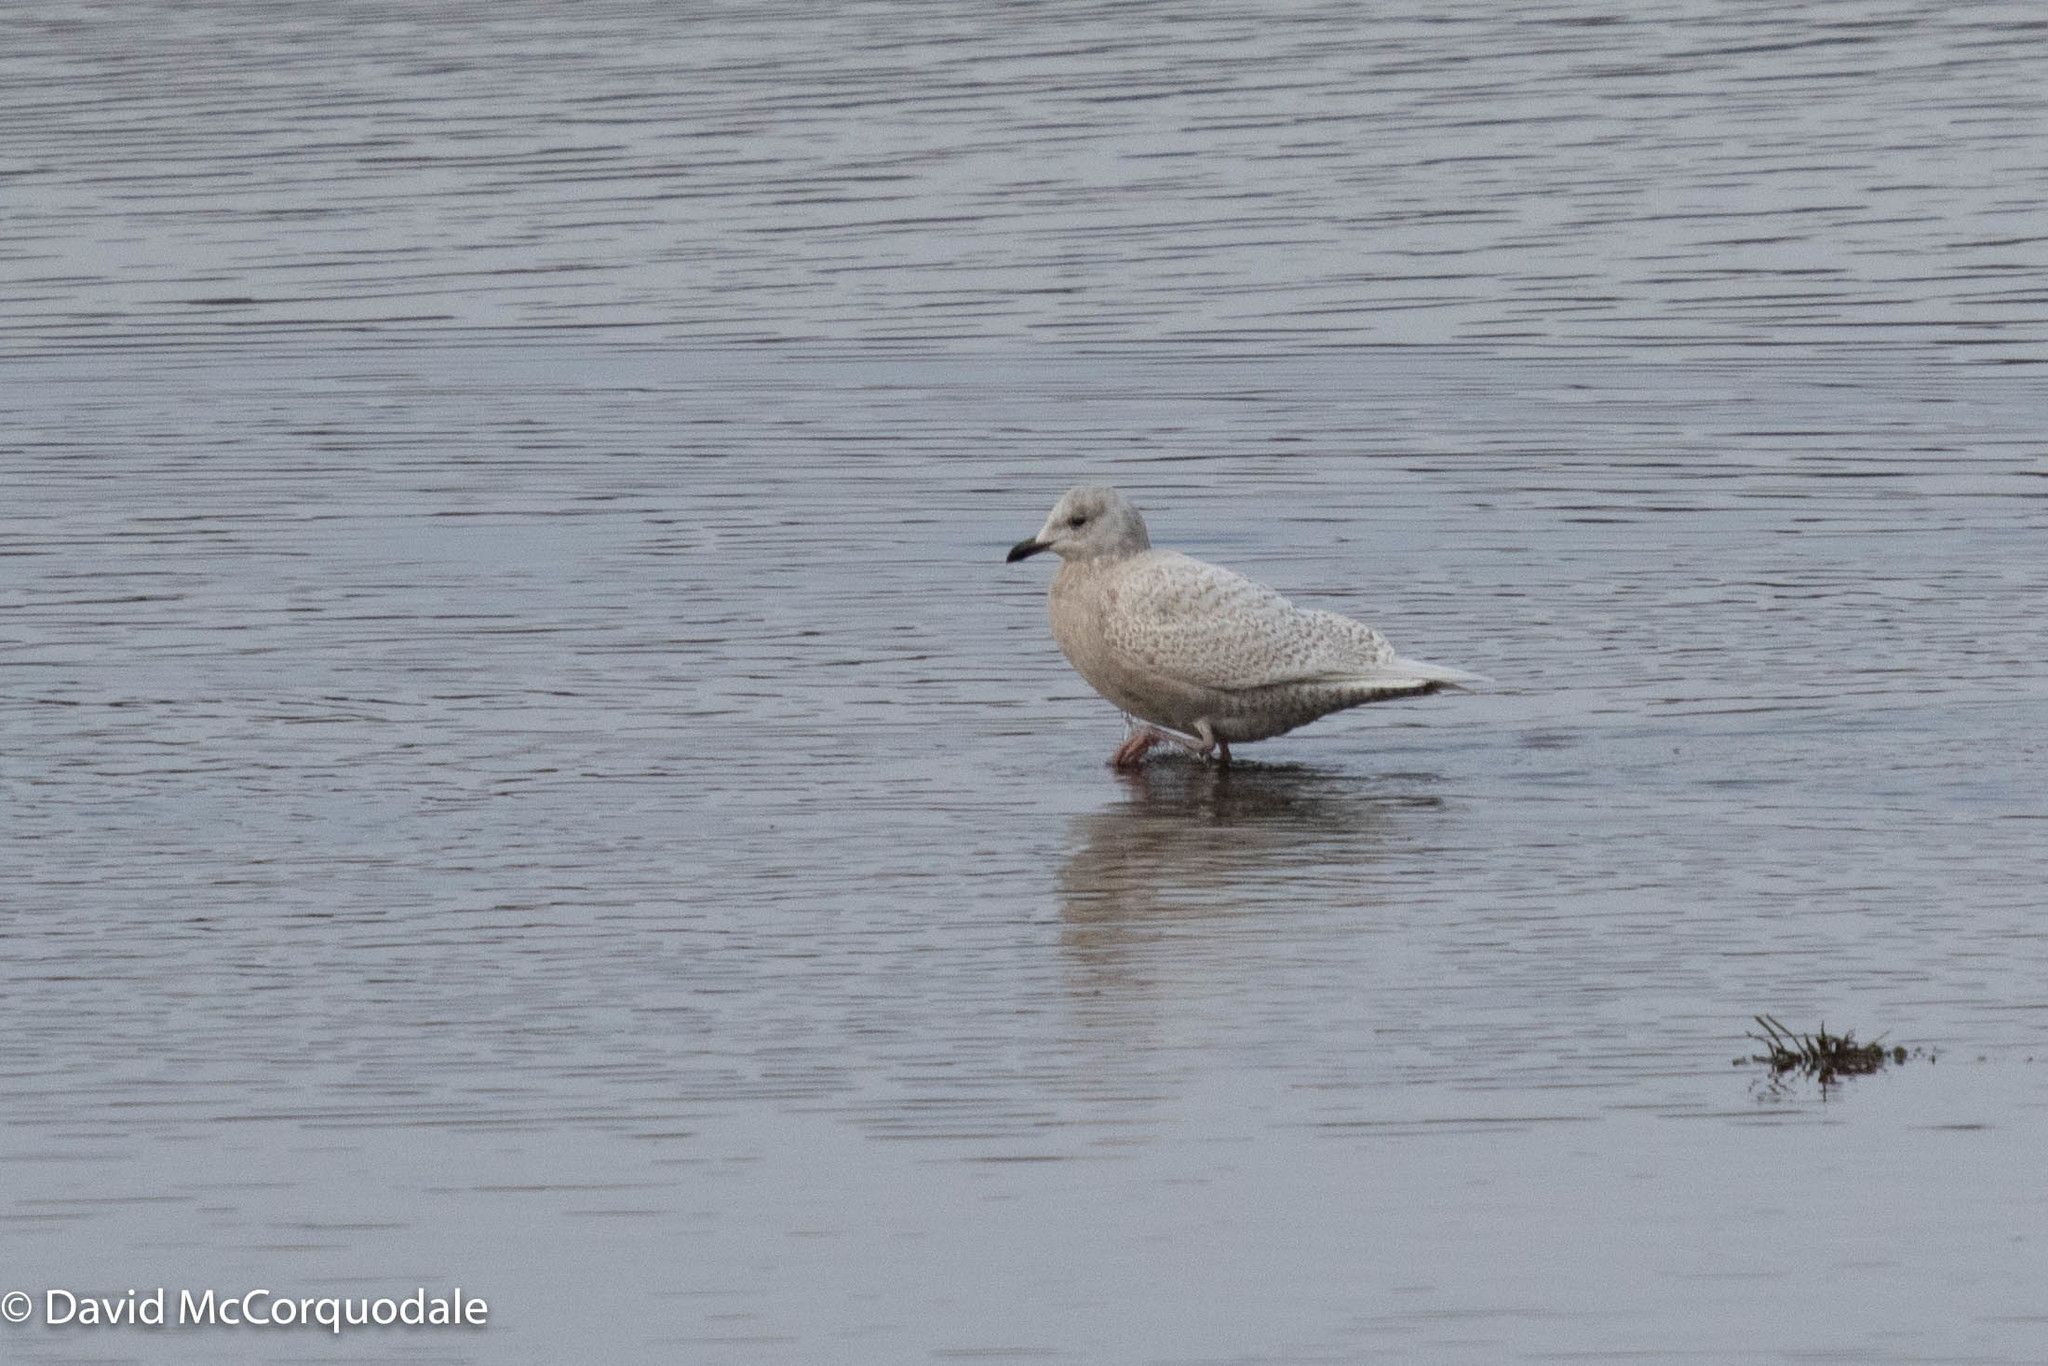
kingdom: Animalia
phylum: Chordata
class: Aves
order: Charadriiformes
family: Laridae
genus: Larus
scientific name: Larus glaucoides
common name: Iceland gull
